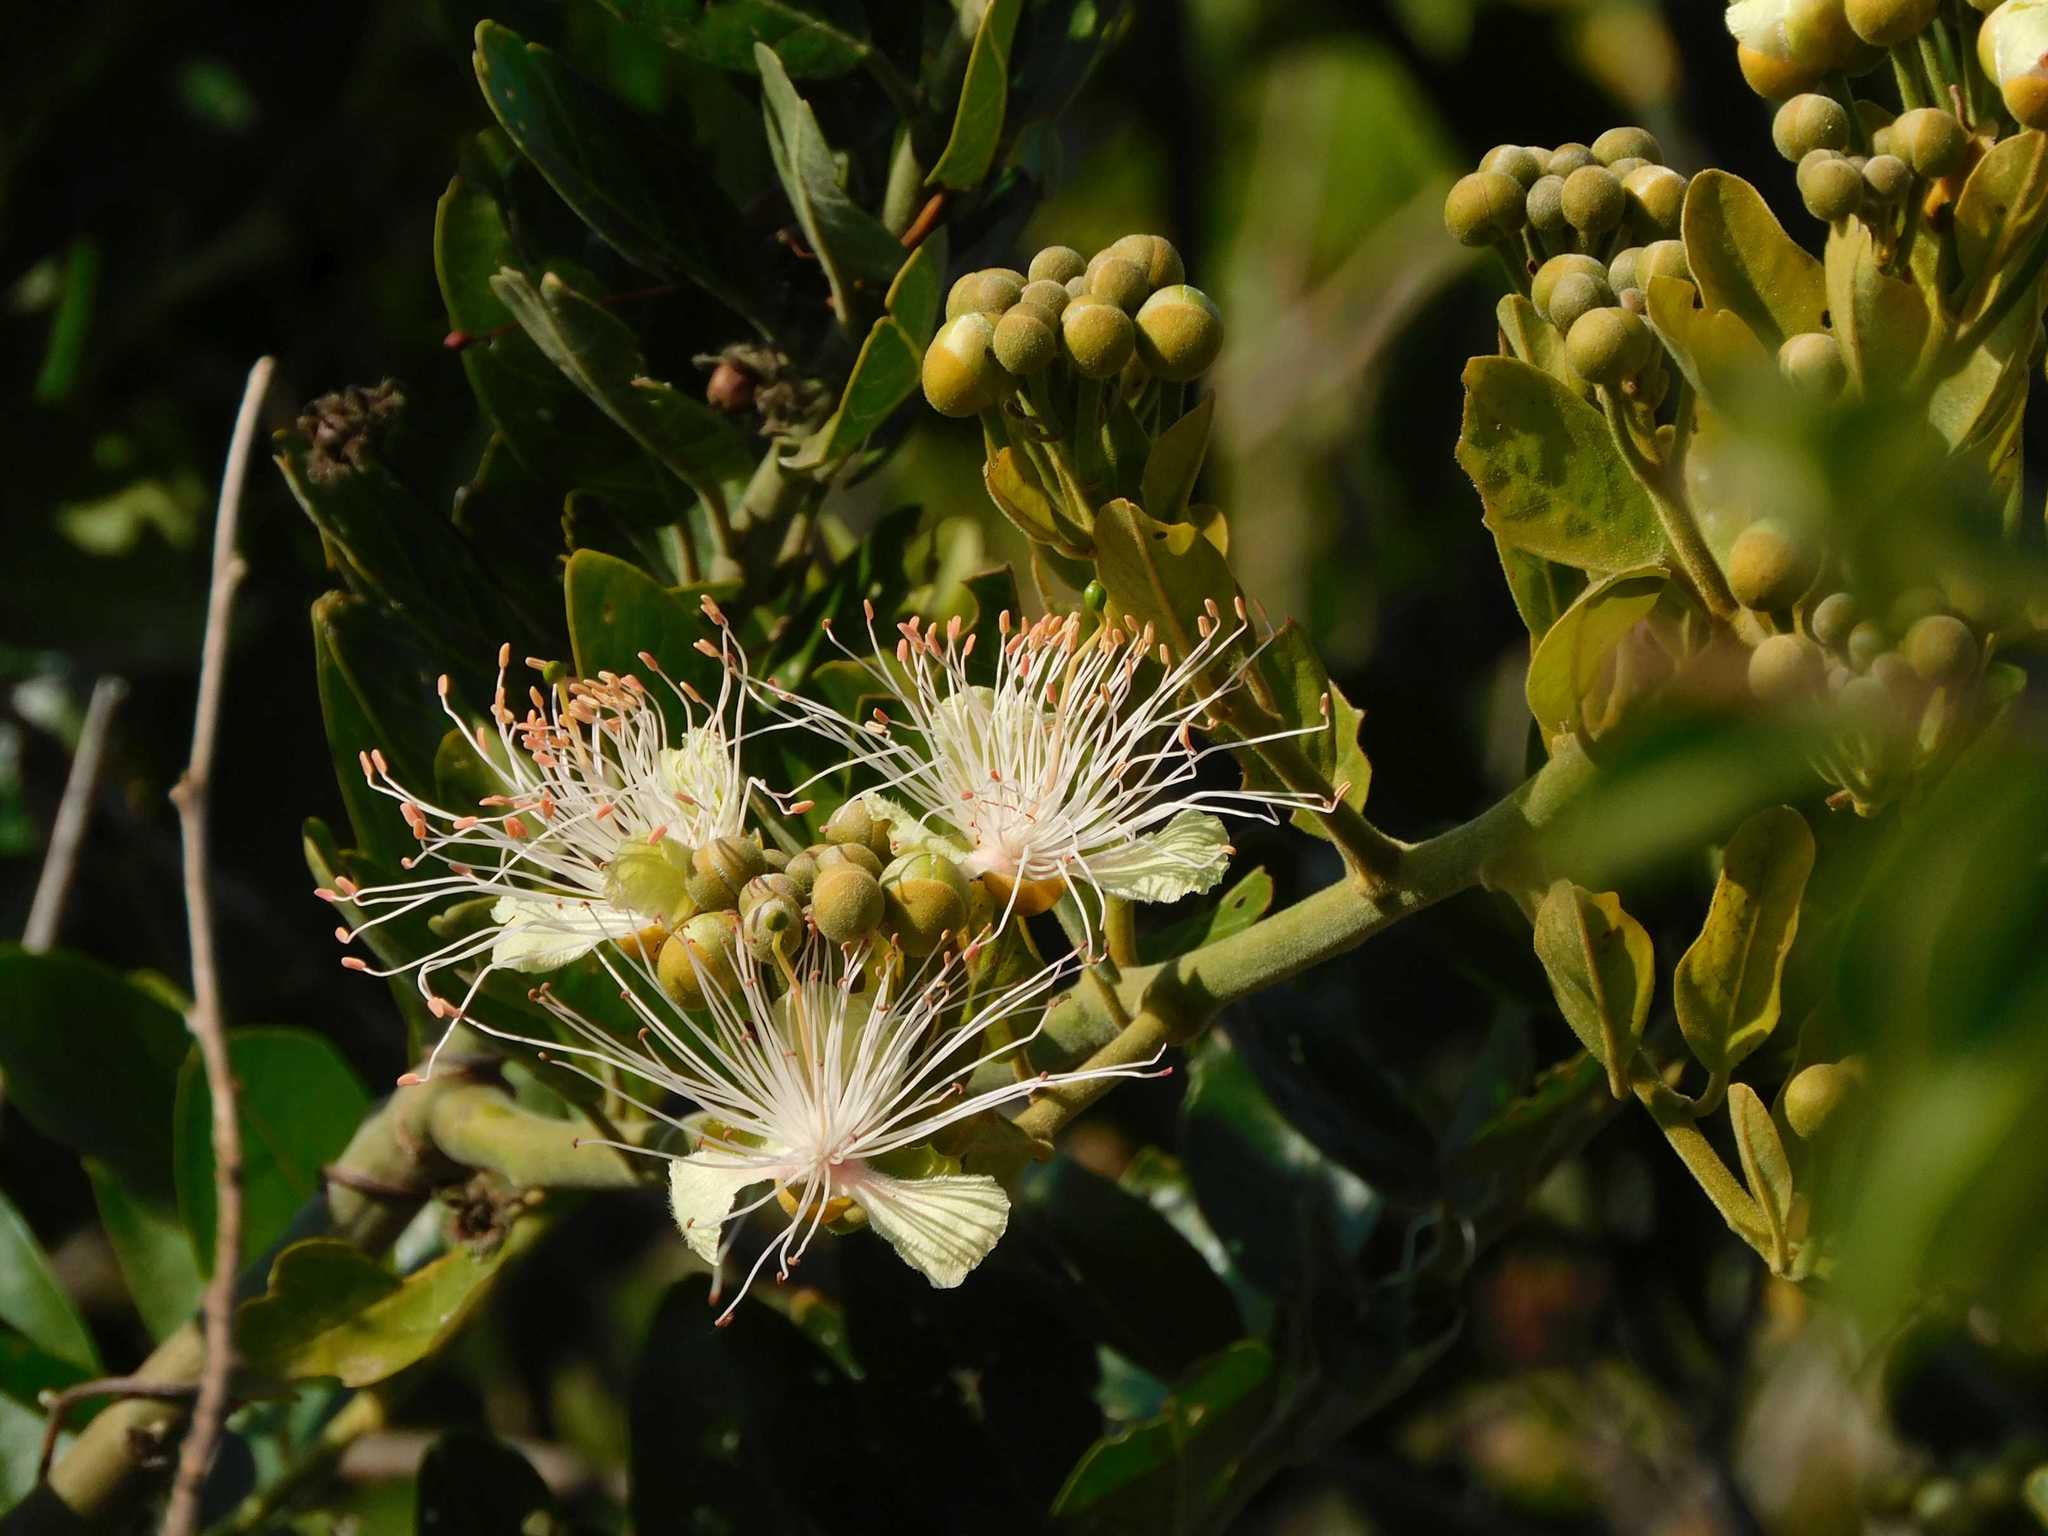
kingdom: Plantae
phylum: Tracheophyta
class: Magnoliopsida
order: Brassicales
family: Capparaceae
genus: Capparis
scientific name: Capparis tomentosa
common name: African caper
